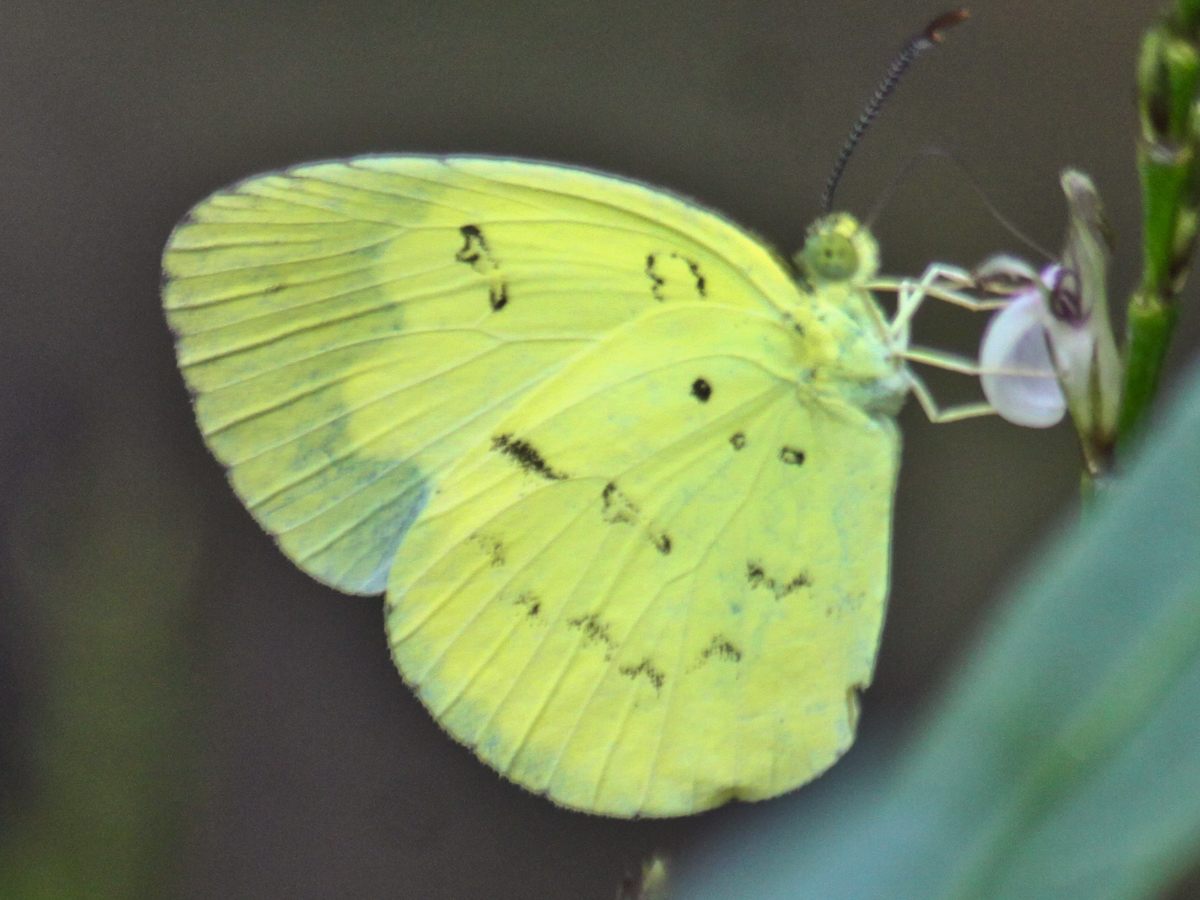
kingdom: Animalia
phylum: Arthropoda
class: Insecta
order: Lepidoptera
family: Pieridae
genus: Eurema
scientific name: Eurema ada
